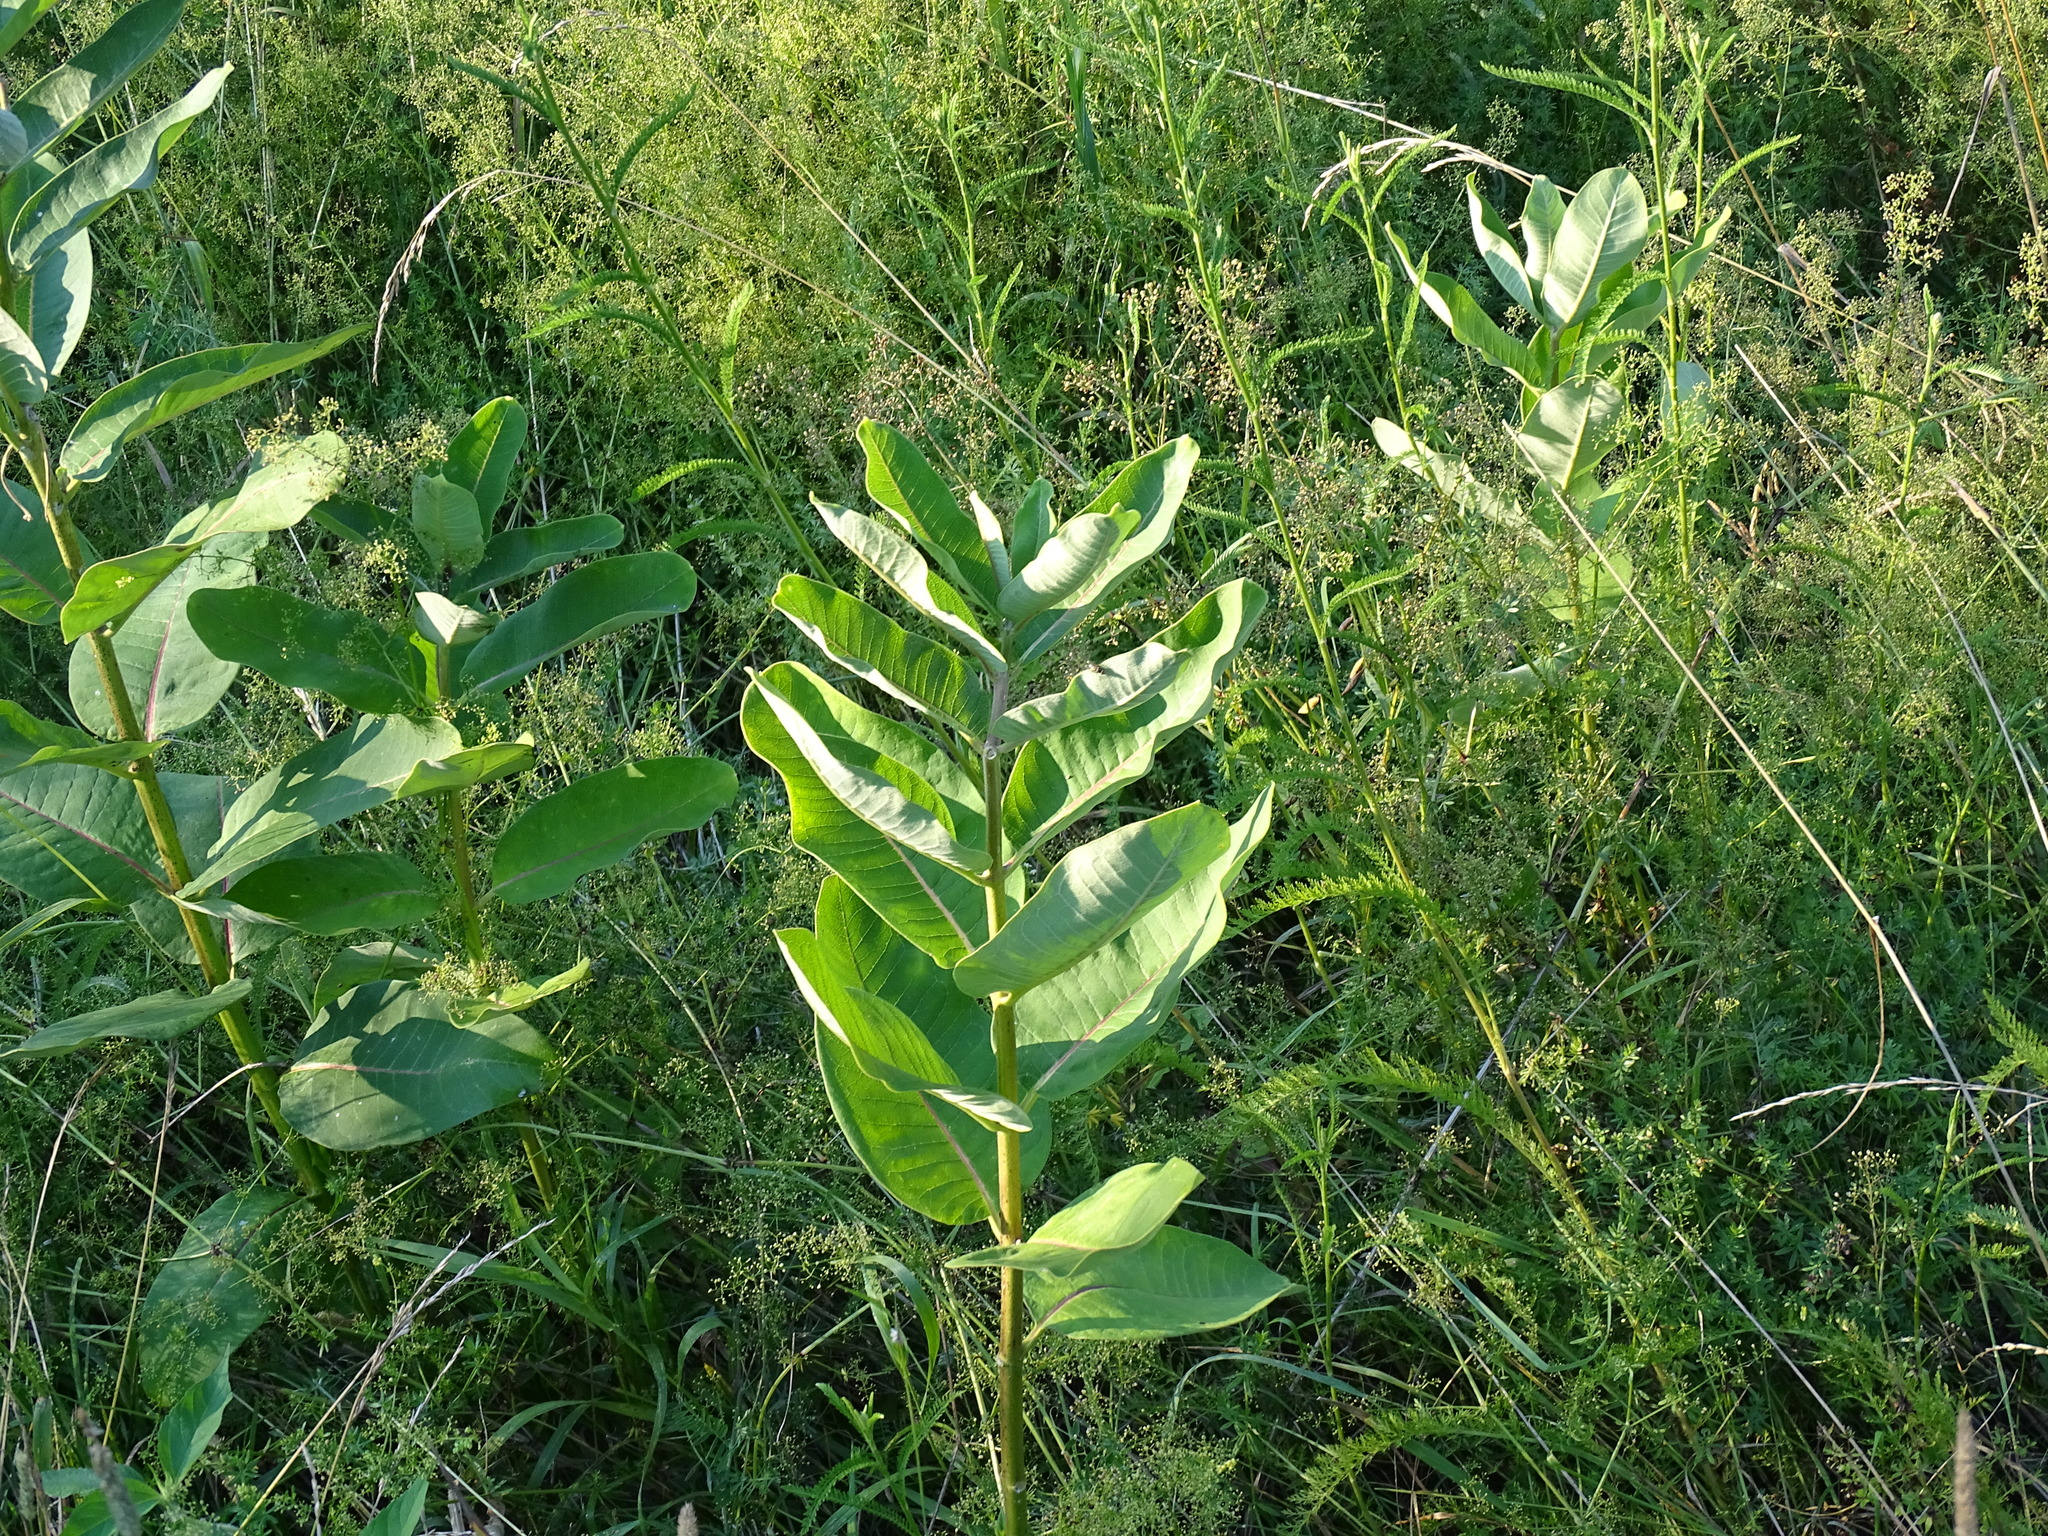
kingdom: Plantae
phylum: Tracheophyta
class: Magnoliopsida
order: Gentianales
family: Apocynaceae
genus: Asclepias
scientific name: Asclepias syriaca
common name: Common milkweed
